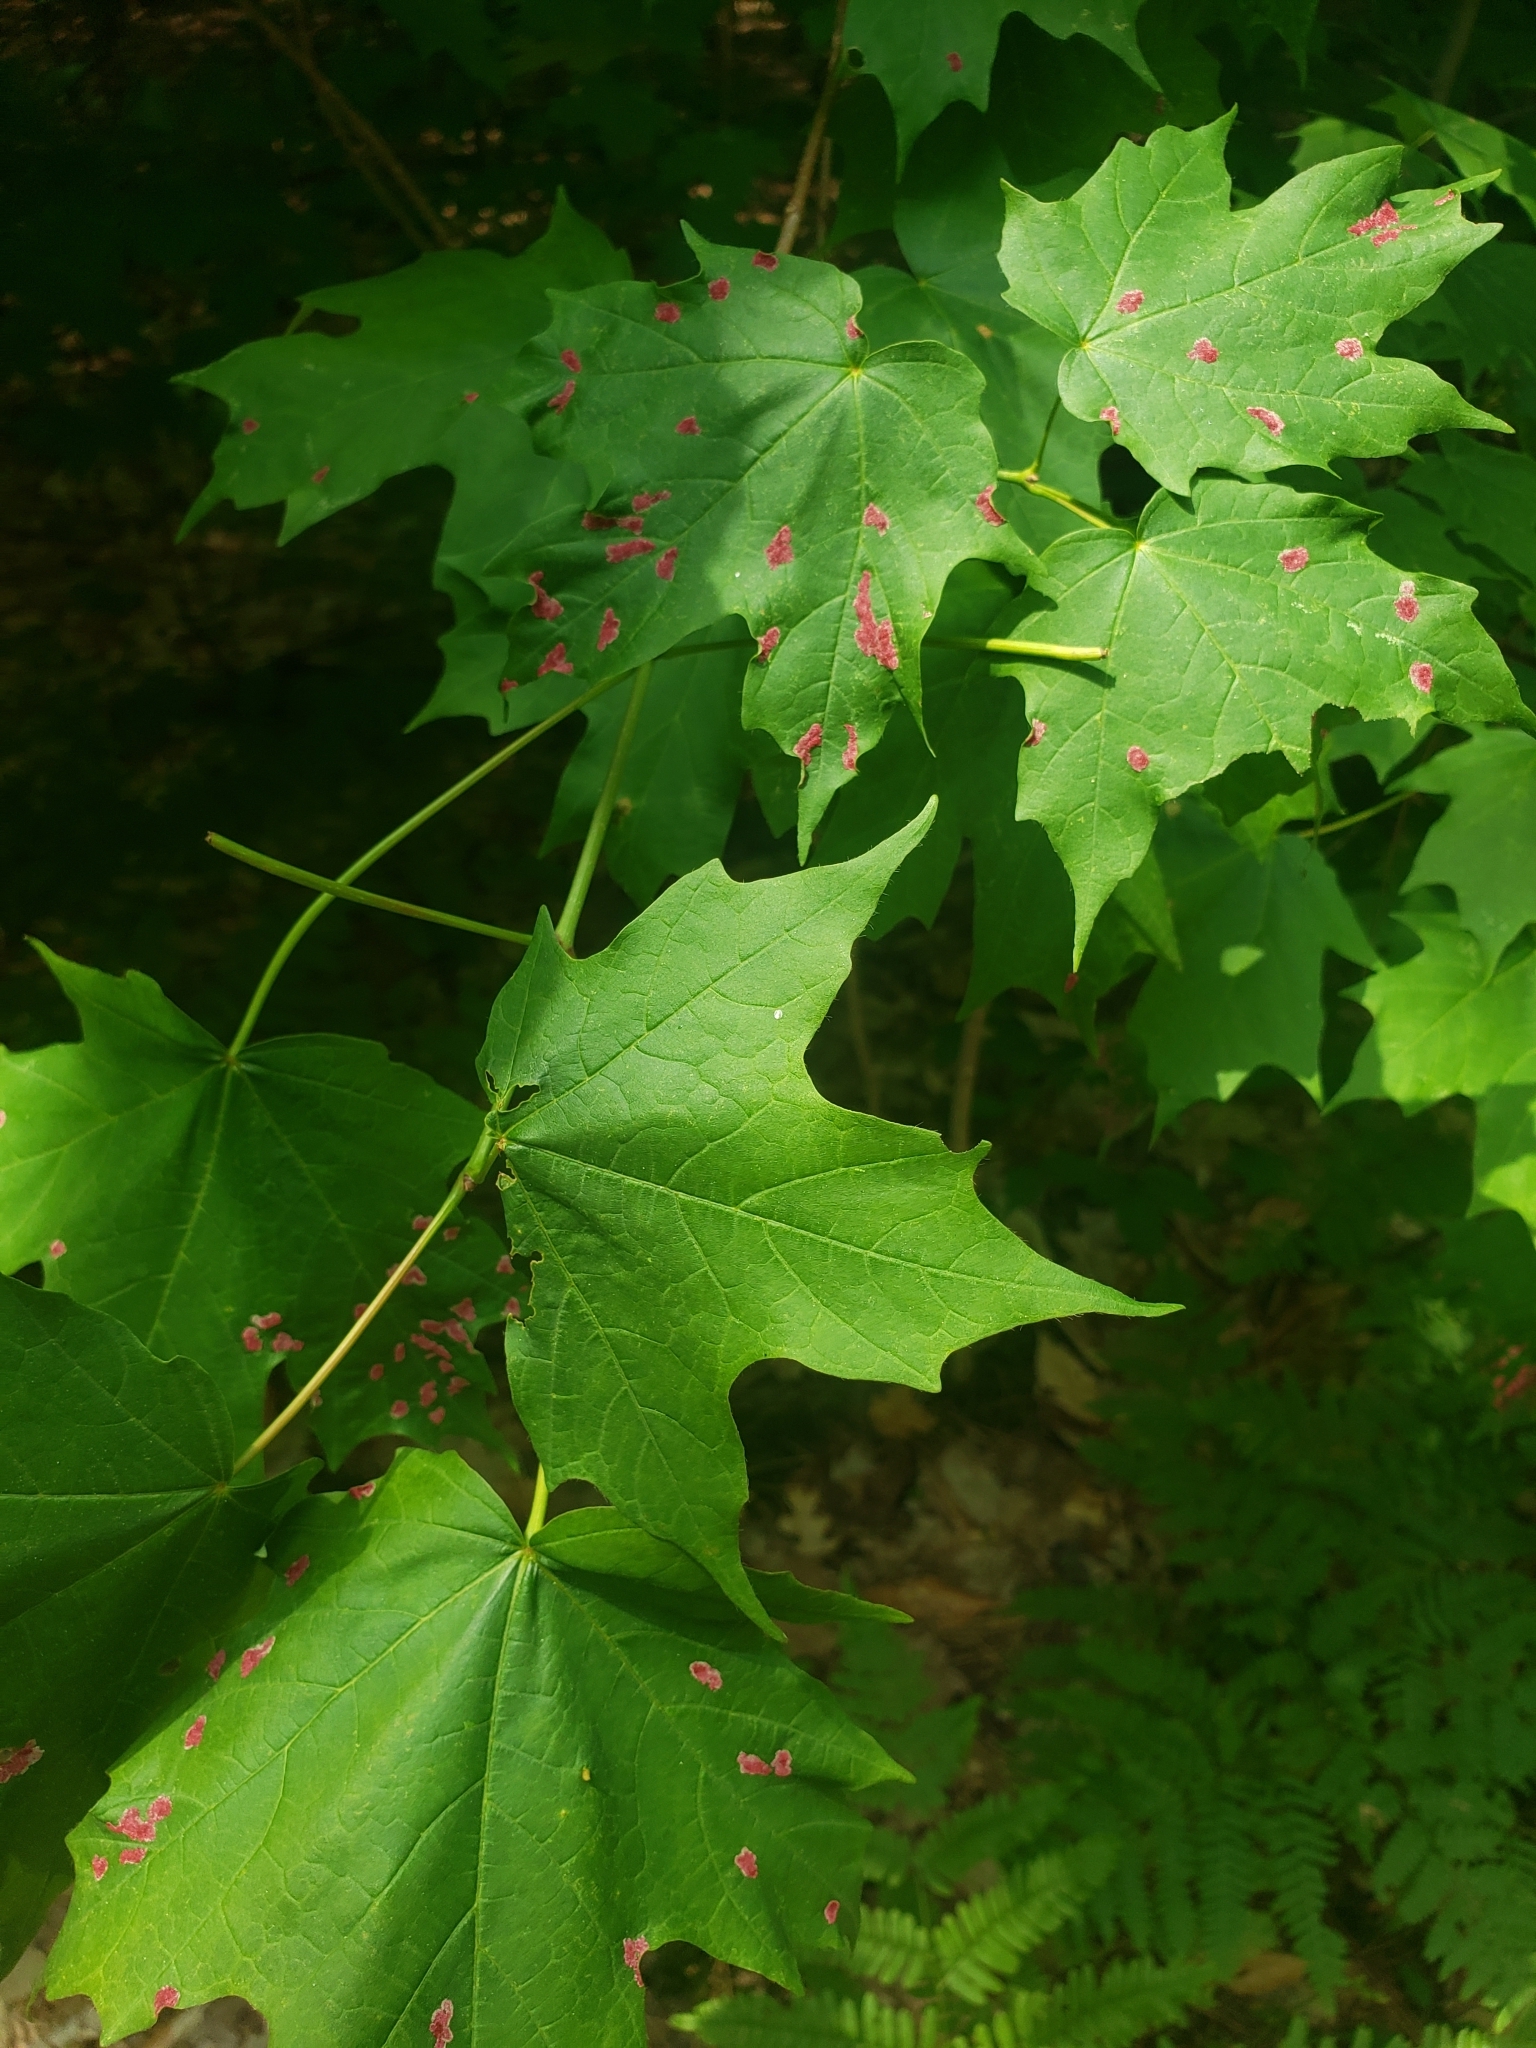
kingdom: Animalia
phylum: Arthropoda
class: Arachnida
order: Trombidiformes
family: Eriophyidae
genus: Aceria
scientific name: Aceria
